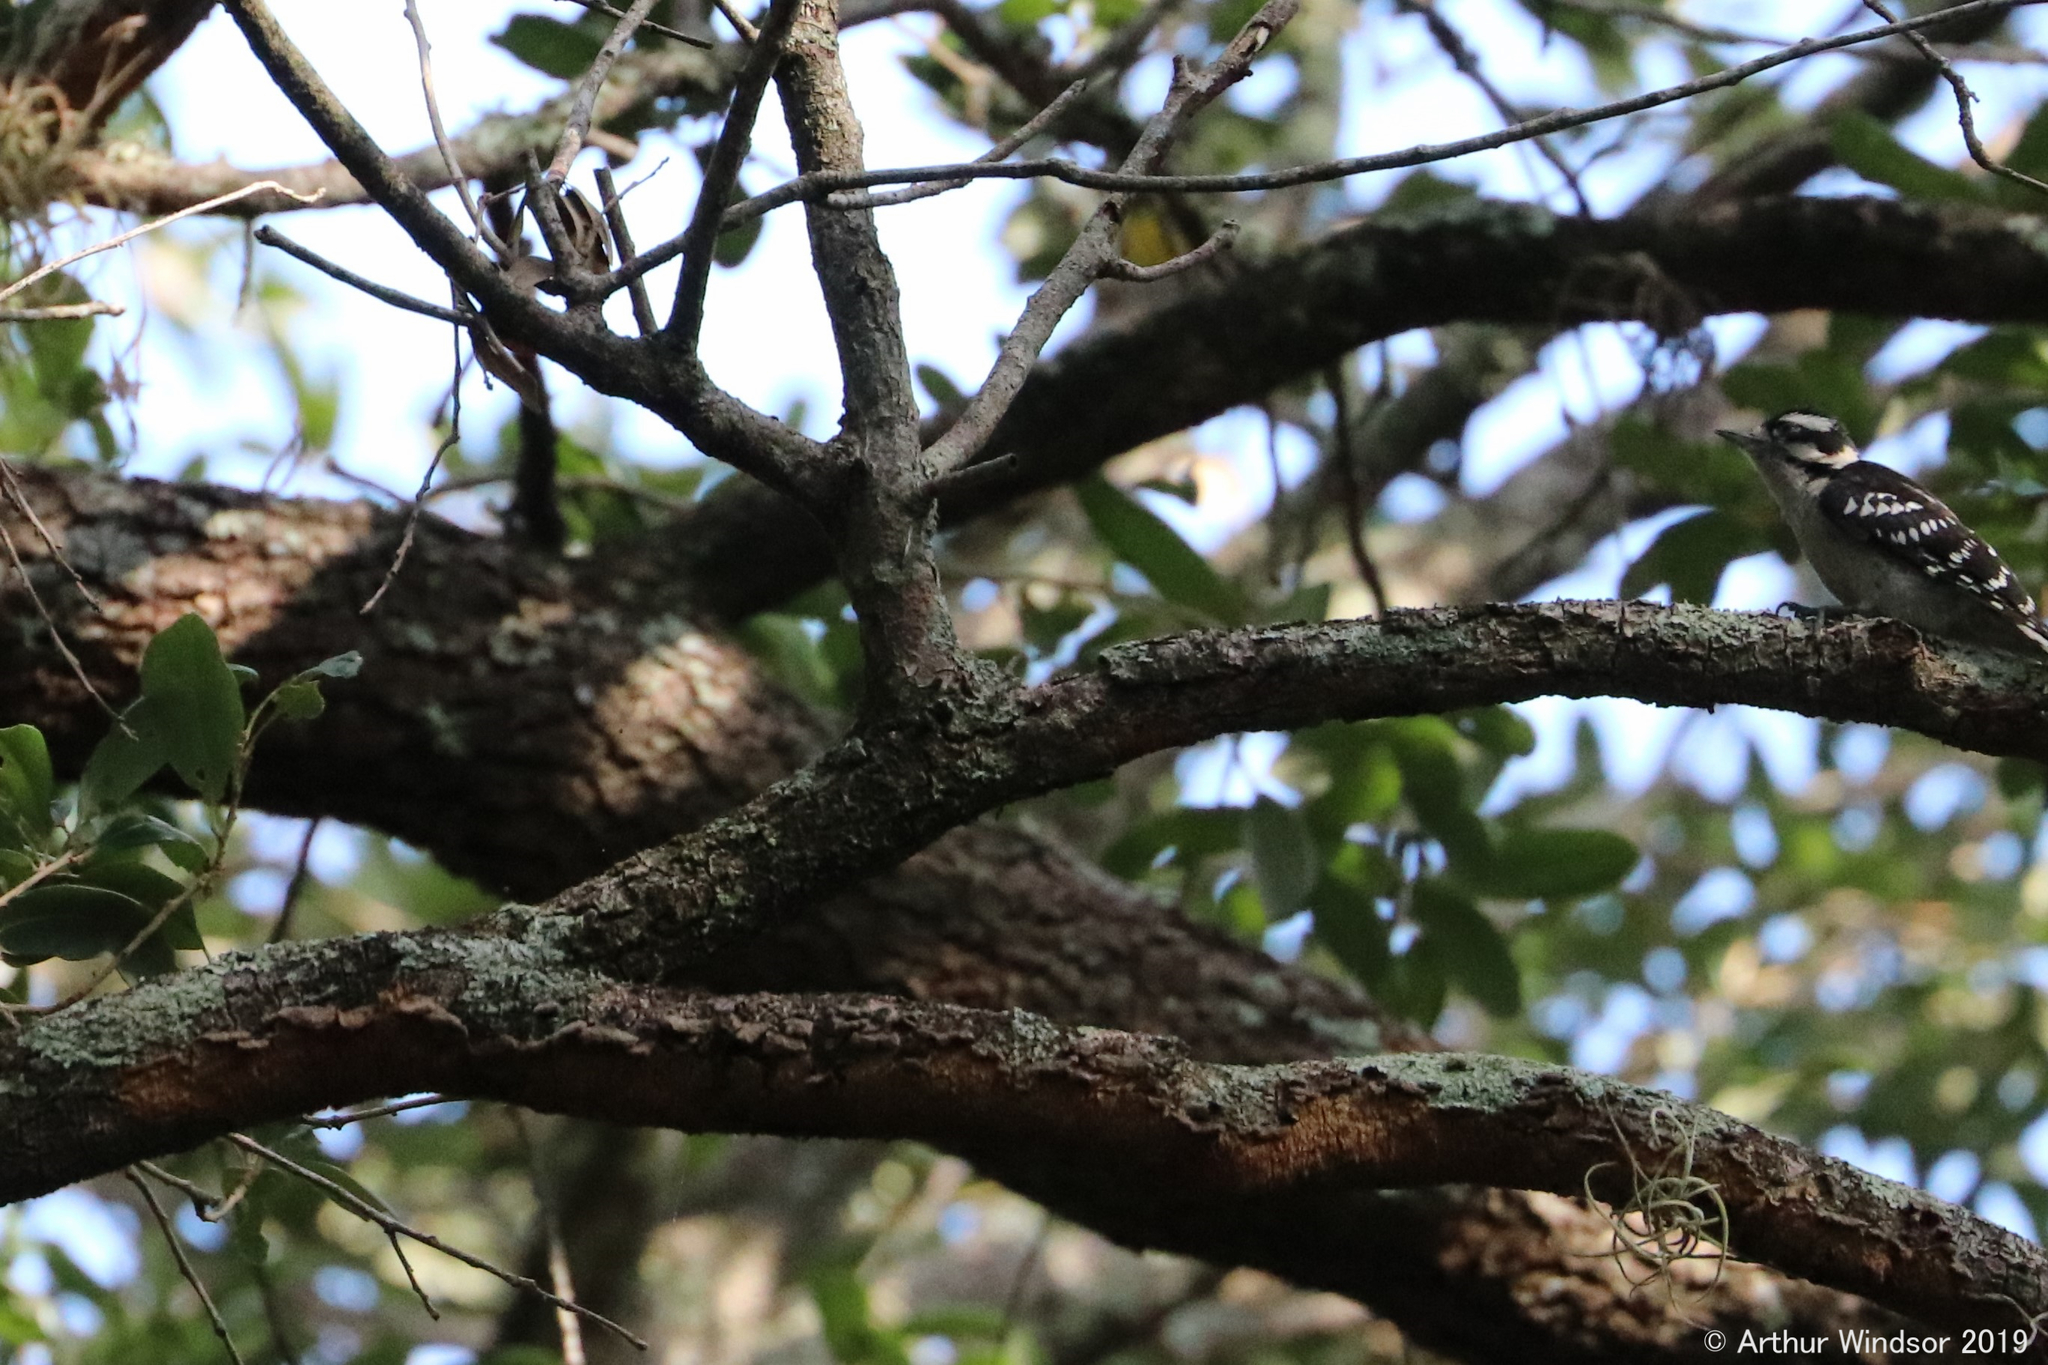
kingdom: Animalia
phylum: Chordata
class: Aves
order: Piciformes
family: Picidae
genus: Dryobates
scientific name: Dryobates pubescens
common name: Downy woodpecker
